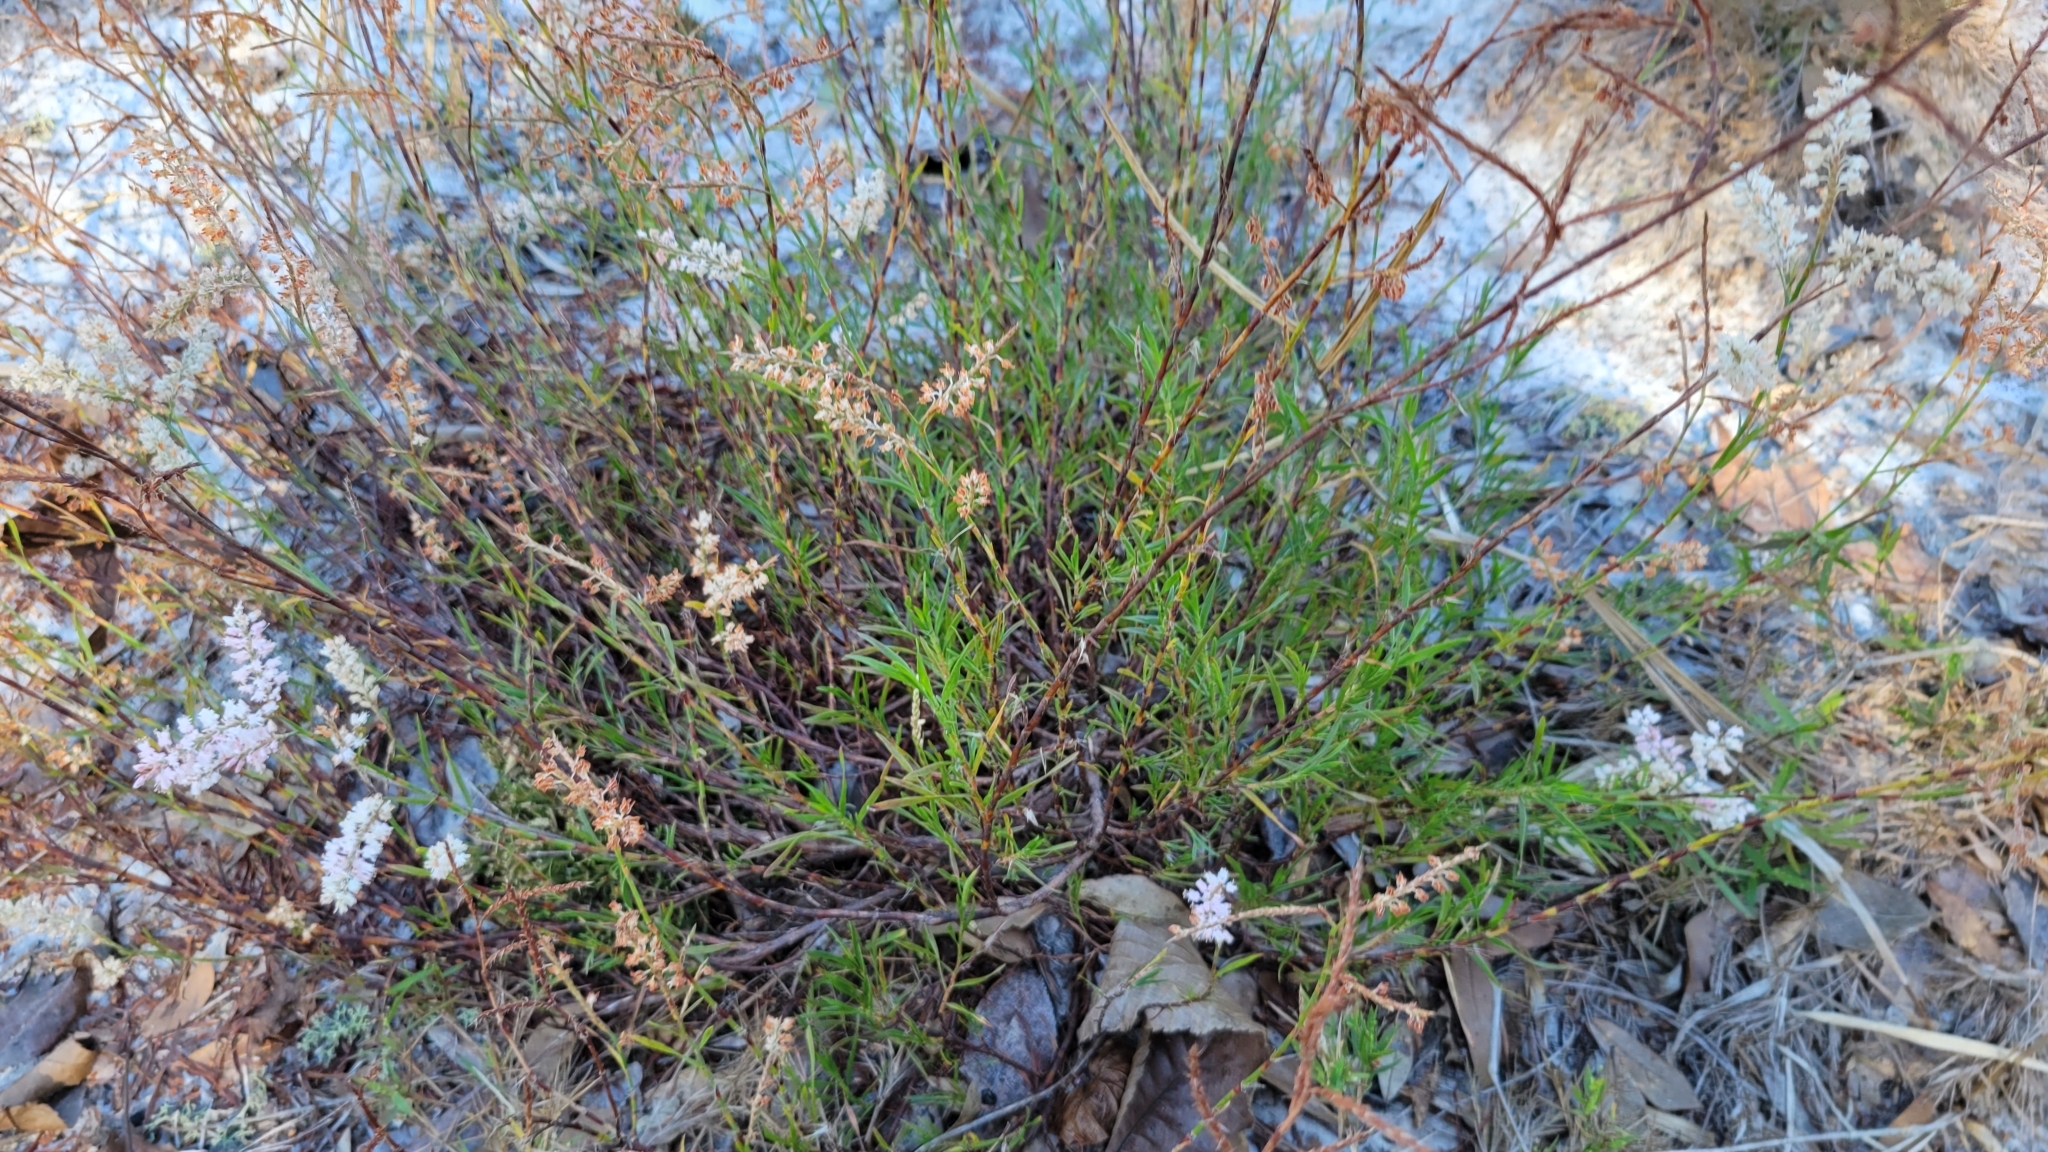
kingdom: Plantae
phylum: Tracheophyta
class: Magnoliopsida
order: Caryophyllales
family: Polygonaceae
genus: Polygonella
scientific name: Polygonella robusta
